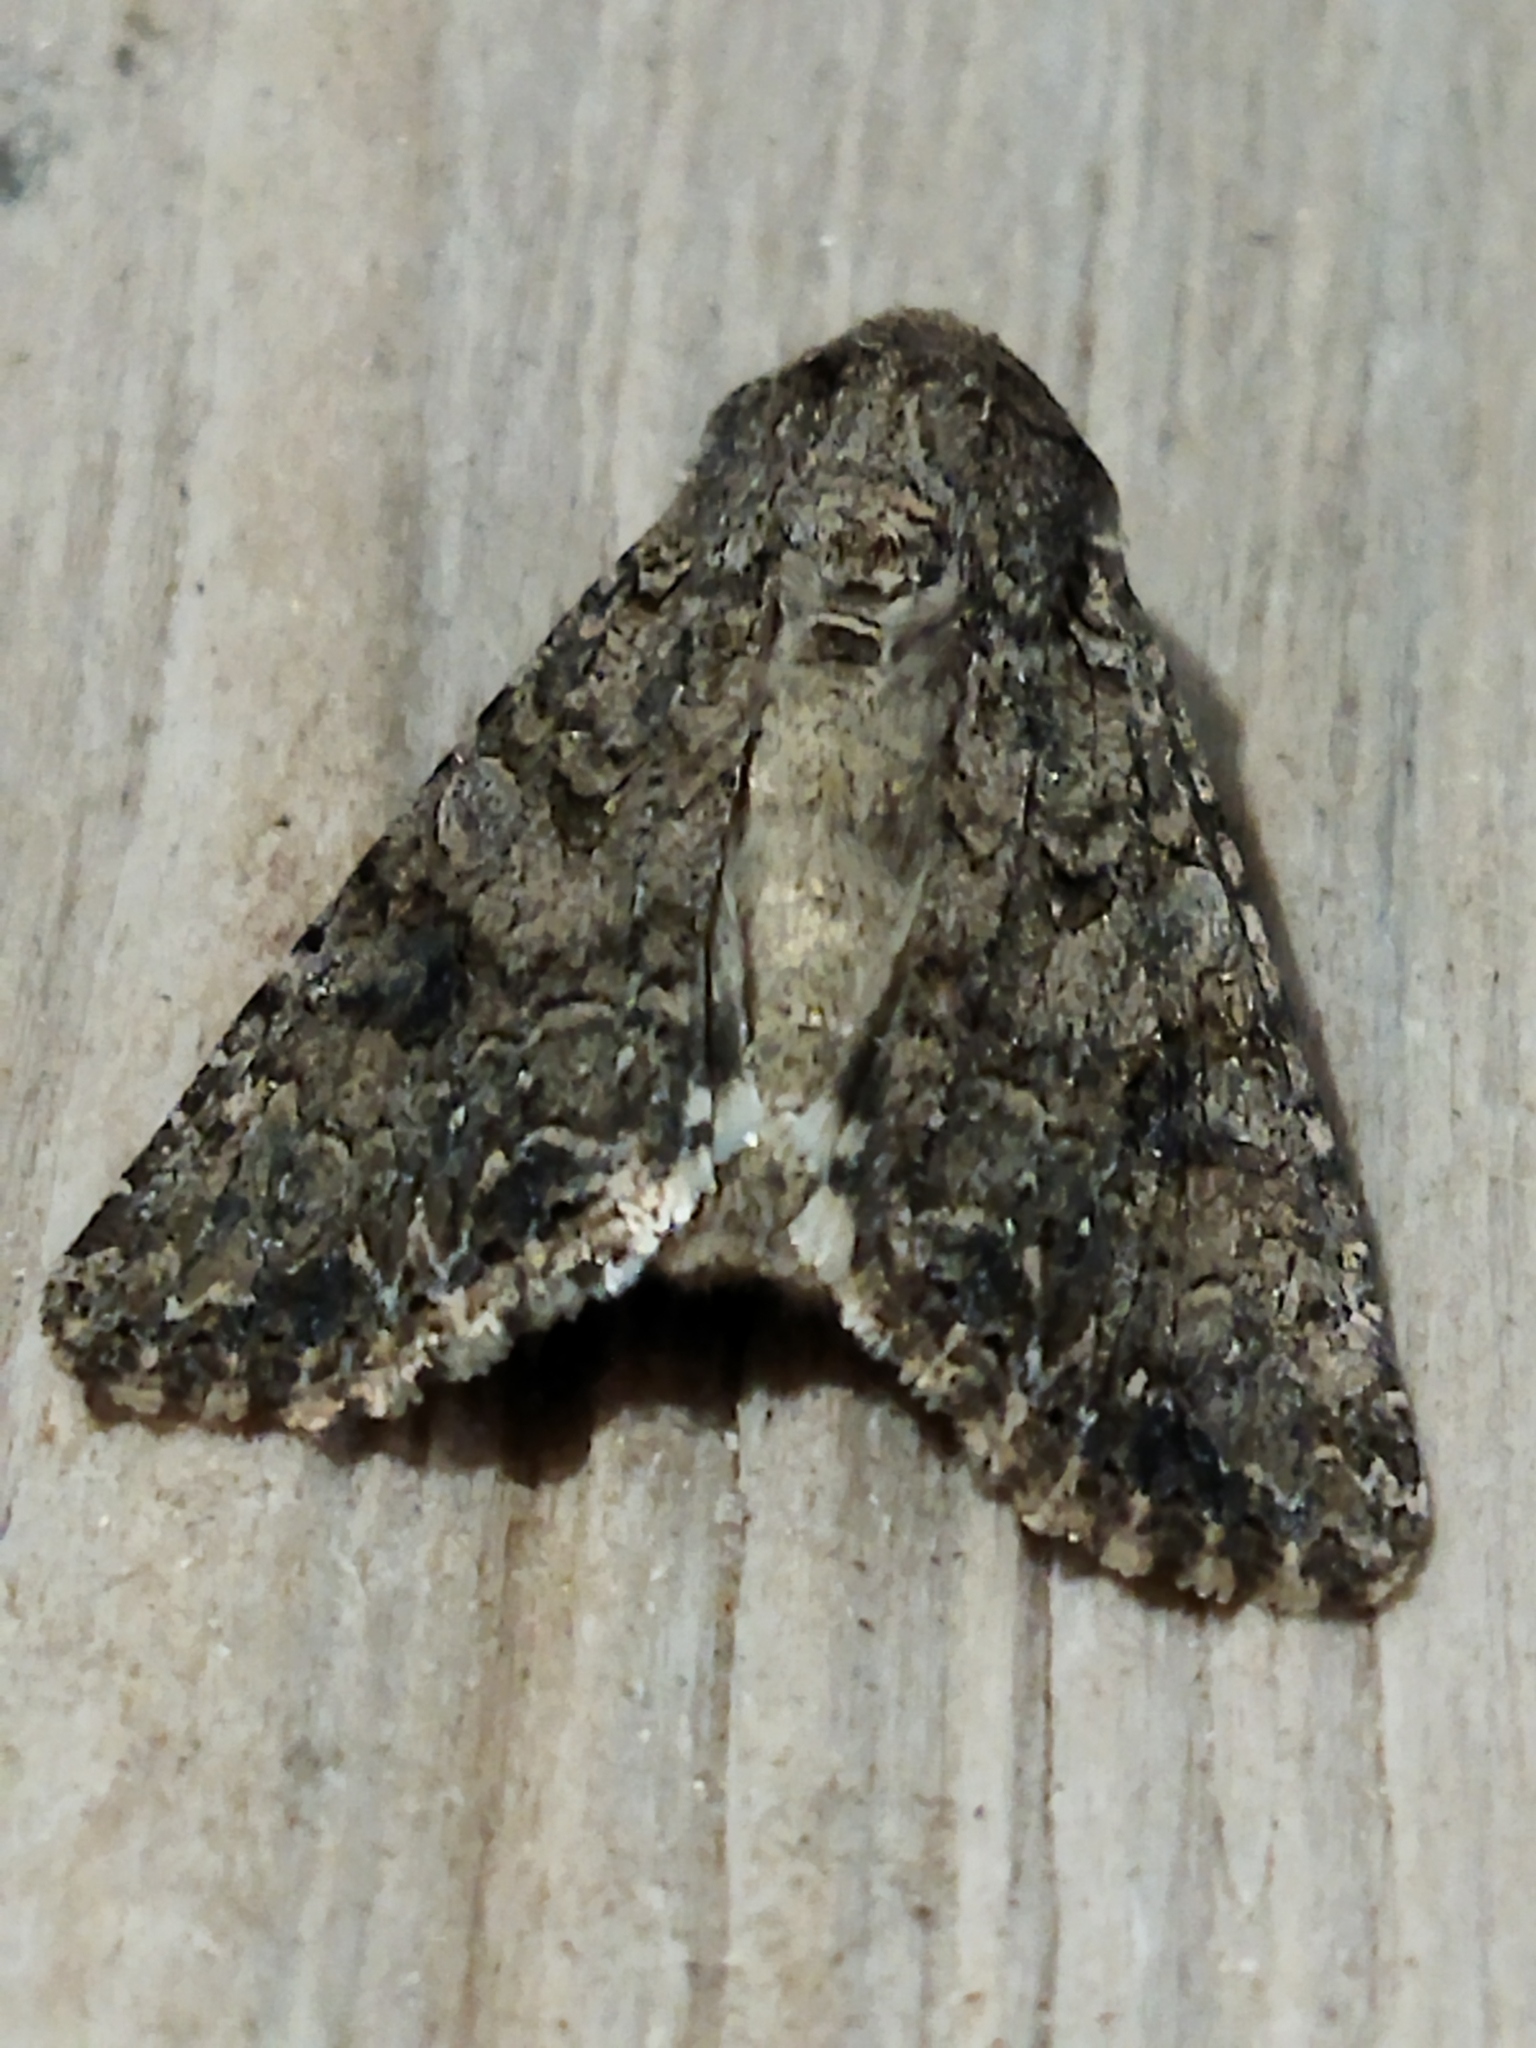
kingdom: Animalia
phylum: Arthropoda
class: Insecta
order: Lepidoptera
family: Noctuidae
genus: Anarta
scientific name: Anarta trifolii
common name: Clover cutworm moth
